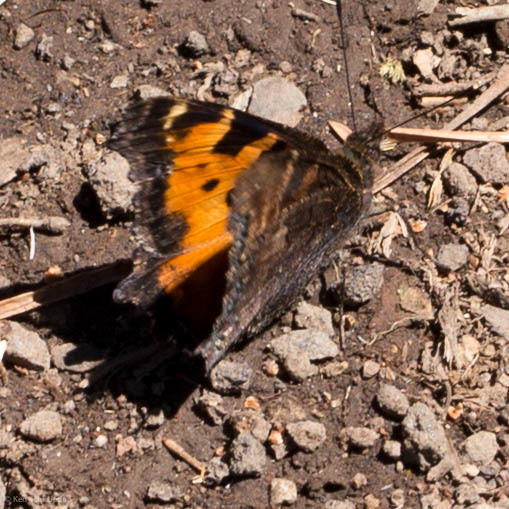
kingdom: Animalia
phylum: Arthropoda
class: Insecta
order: Lepidoptera
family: Nymphalidae
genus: Nymphalis
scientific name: Nymphalis californica
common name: California tortoiseshell
